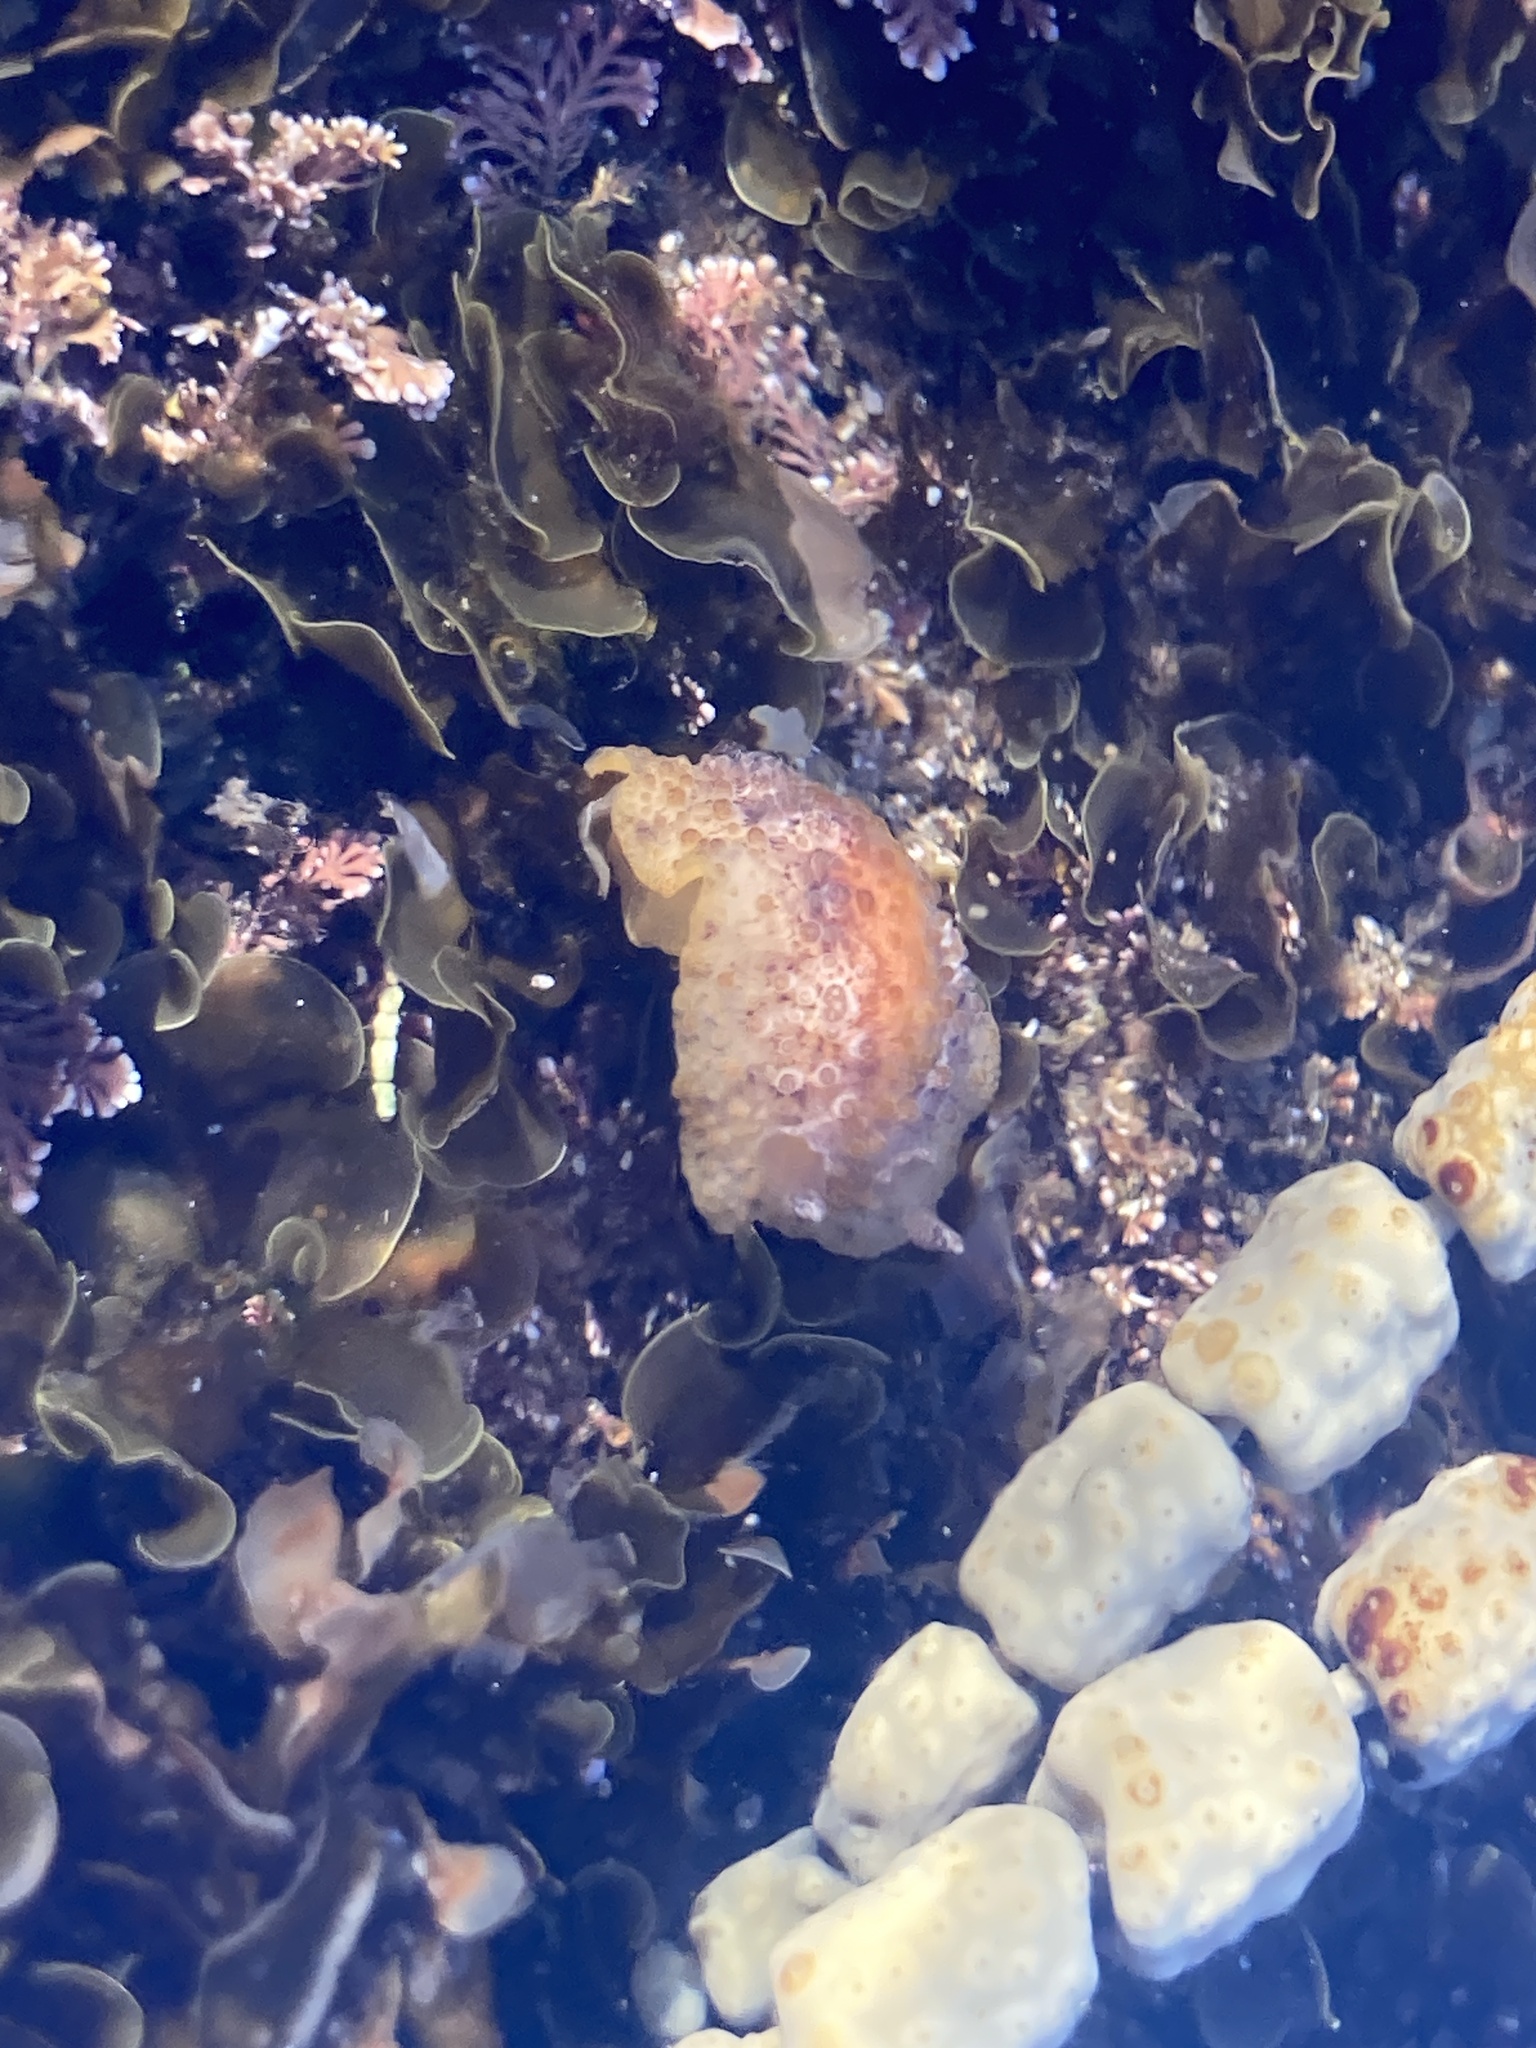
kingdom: Animalia
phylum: Mollusca
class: Gastropoda
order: Nudibranchia
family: Discodorididae
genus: Carminodoris
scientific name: Carminodoris nodulosa
